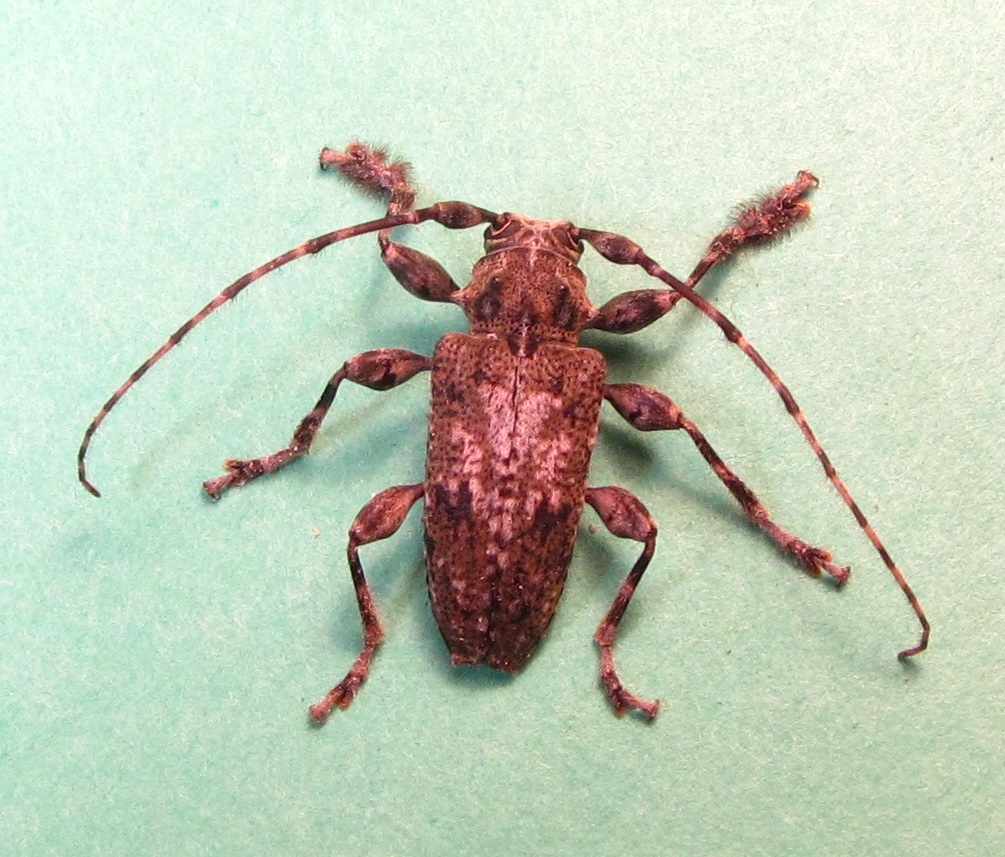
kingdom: Animalia
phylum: Arthropoda
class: Insecta
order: Coleoptera
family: Cerambycidae
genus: Aegomorphus
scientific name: Aegomorphus modestus
